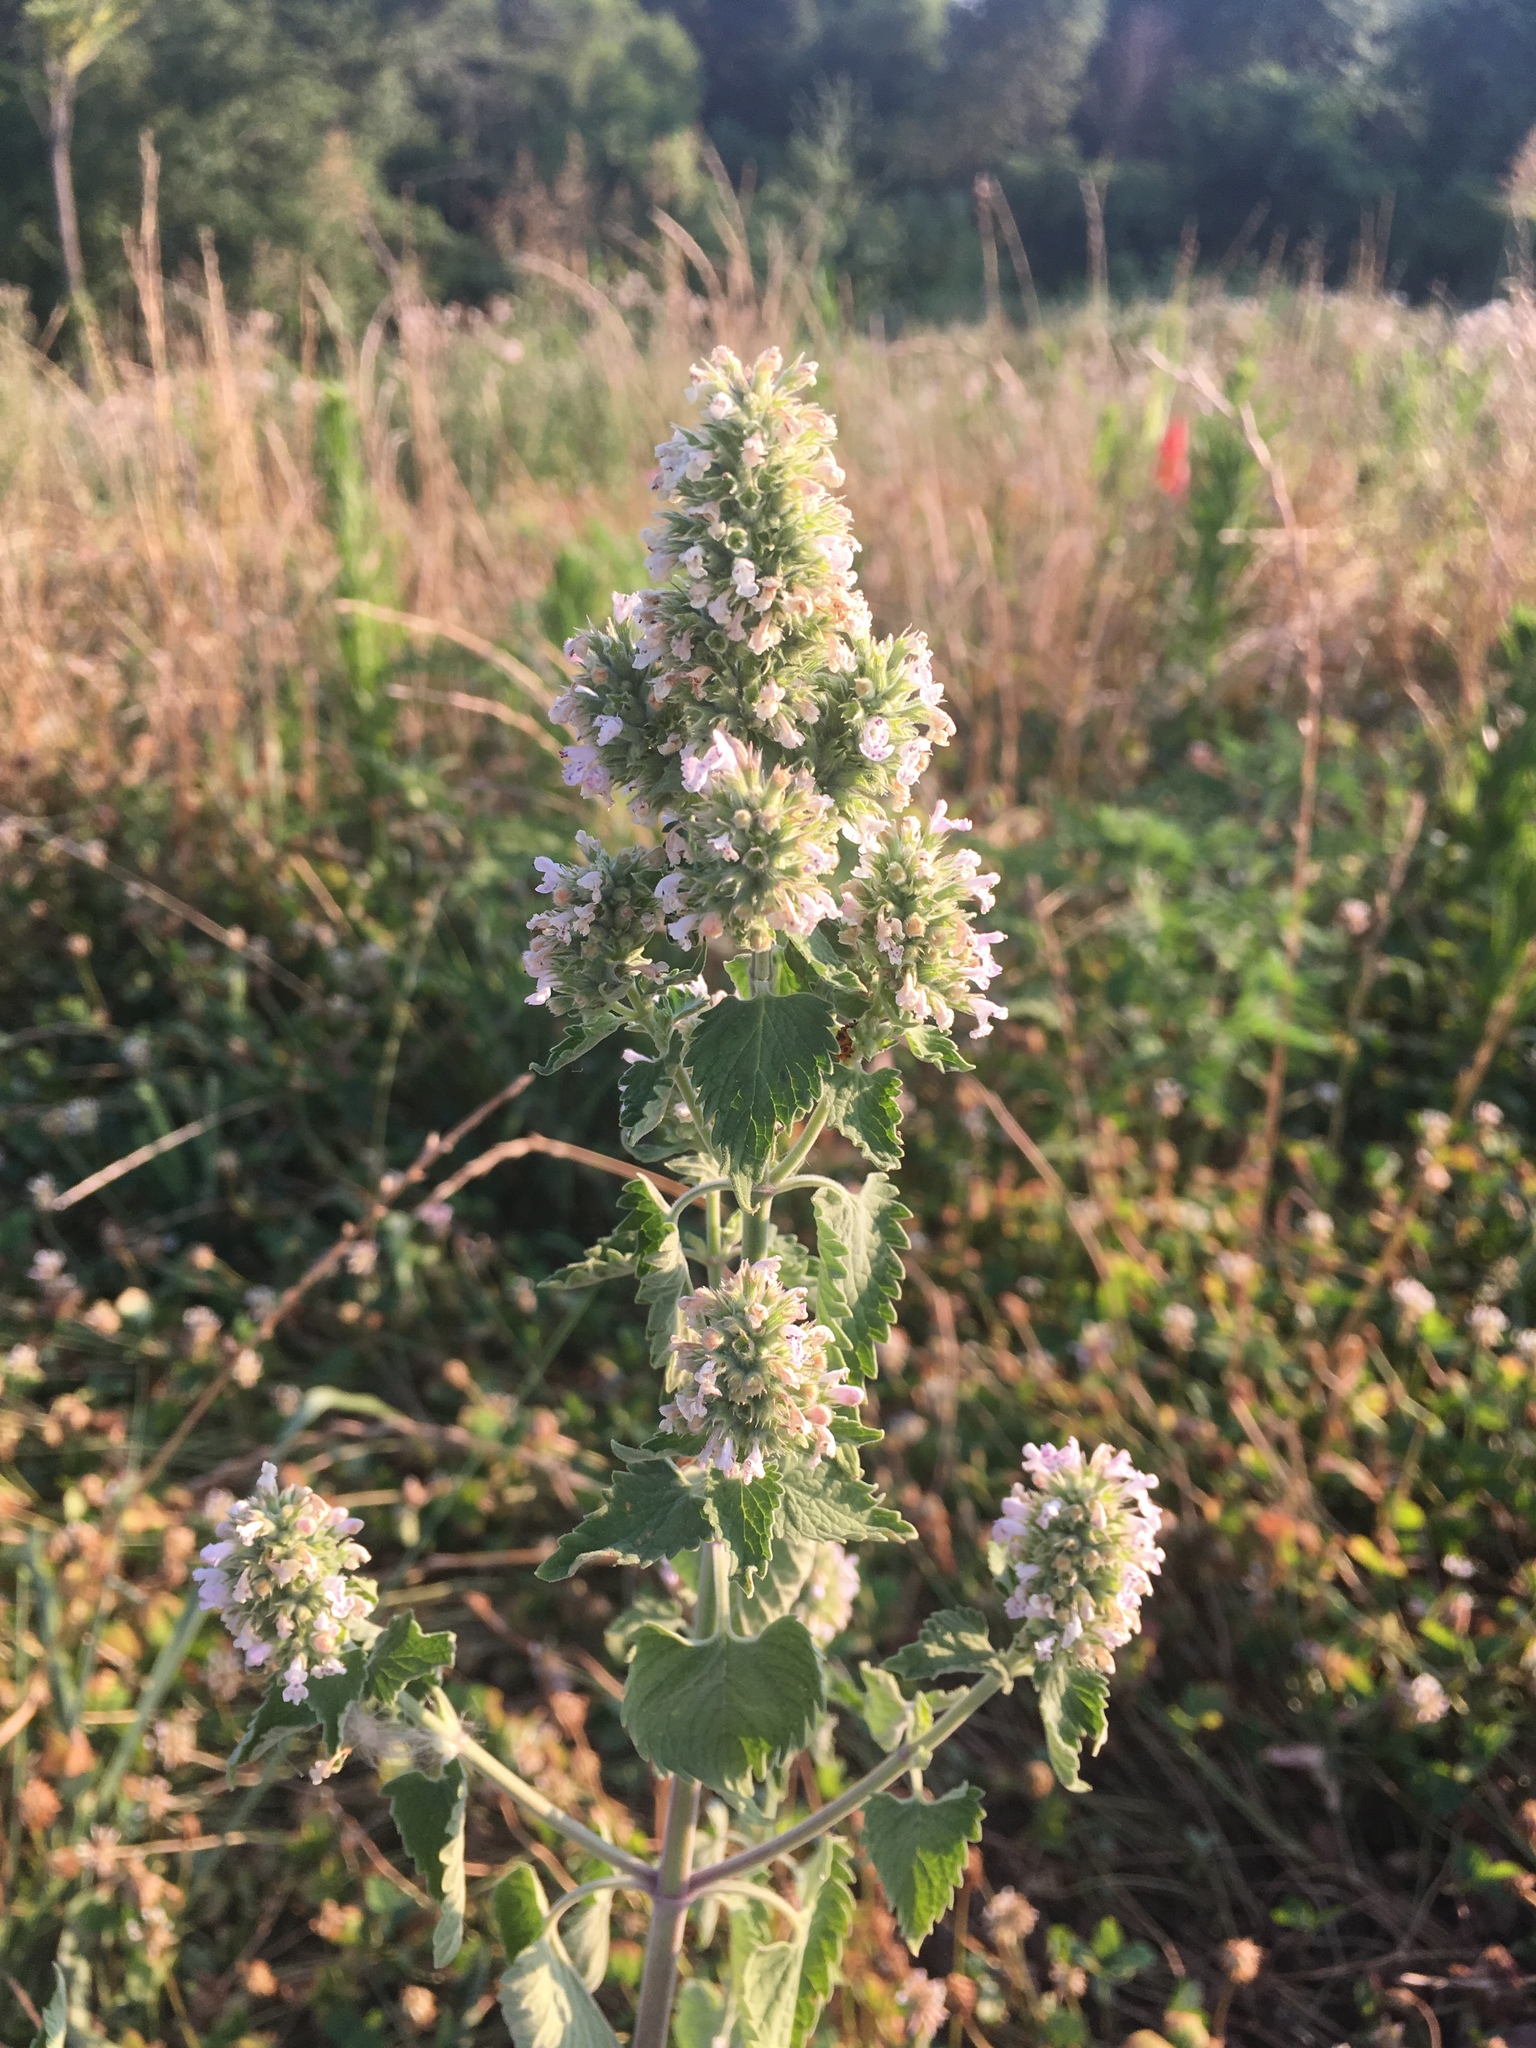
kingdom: Plantae
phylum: Tracheophyta
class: Magnoliopsida
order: Lamiales
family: Lamiaceae
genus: Nepeta
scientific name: Nepeta cataria
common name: Catnip
